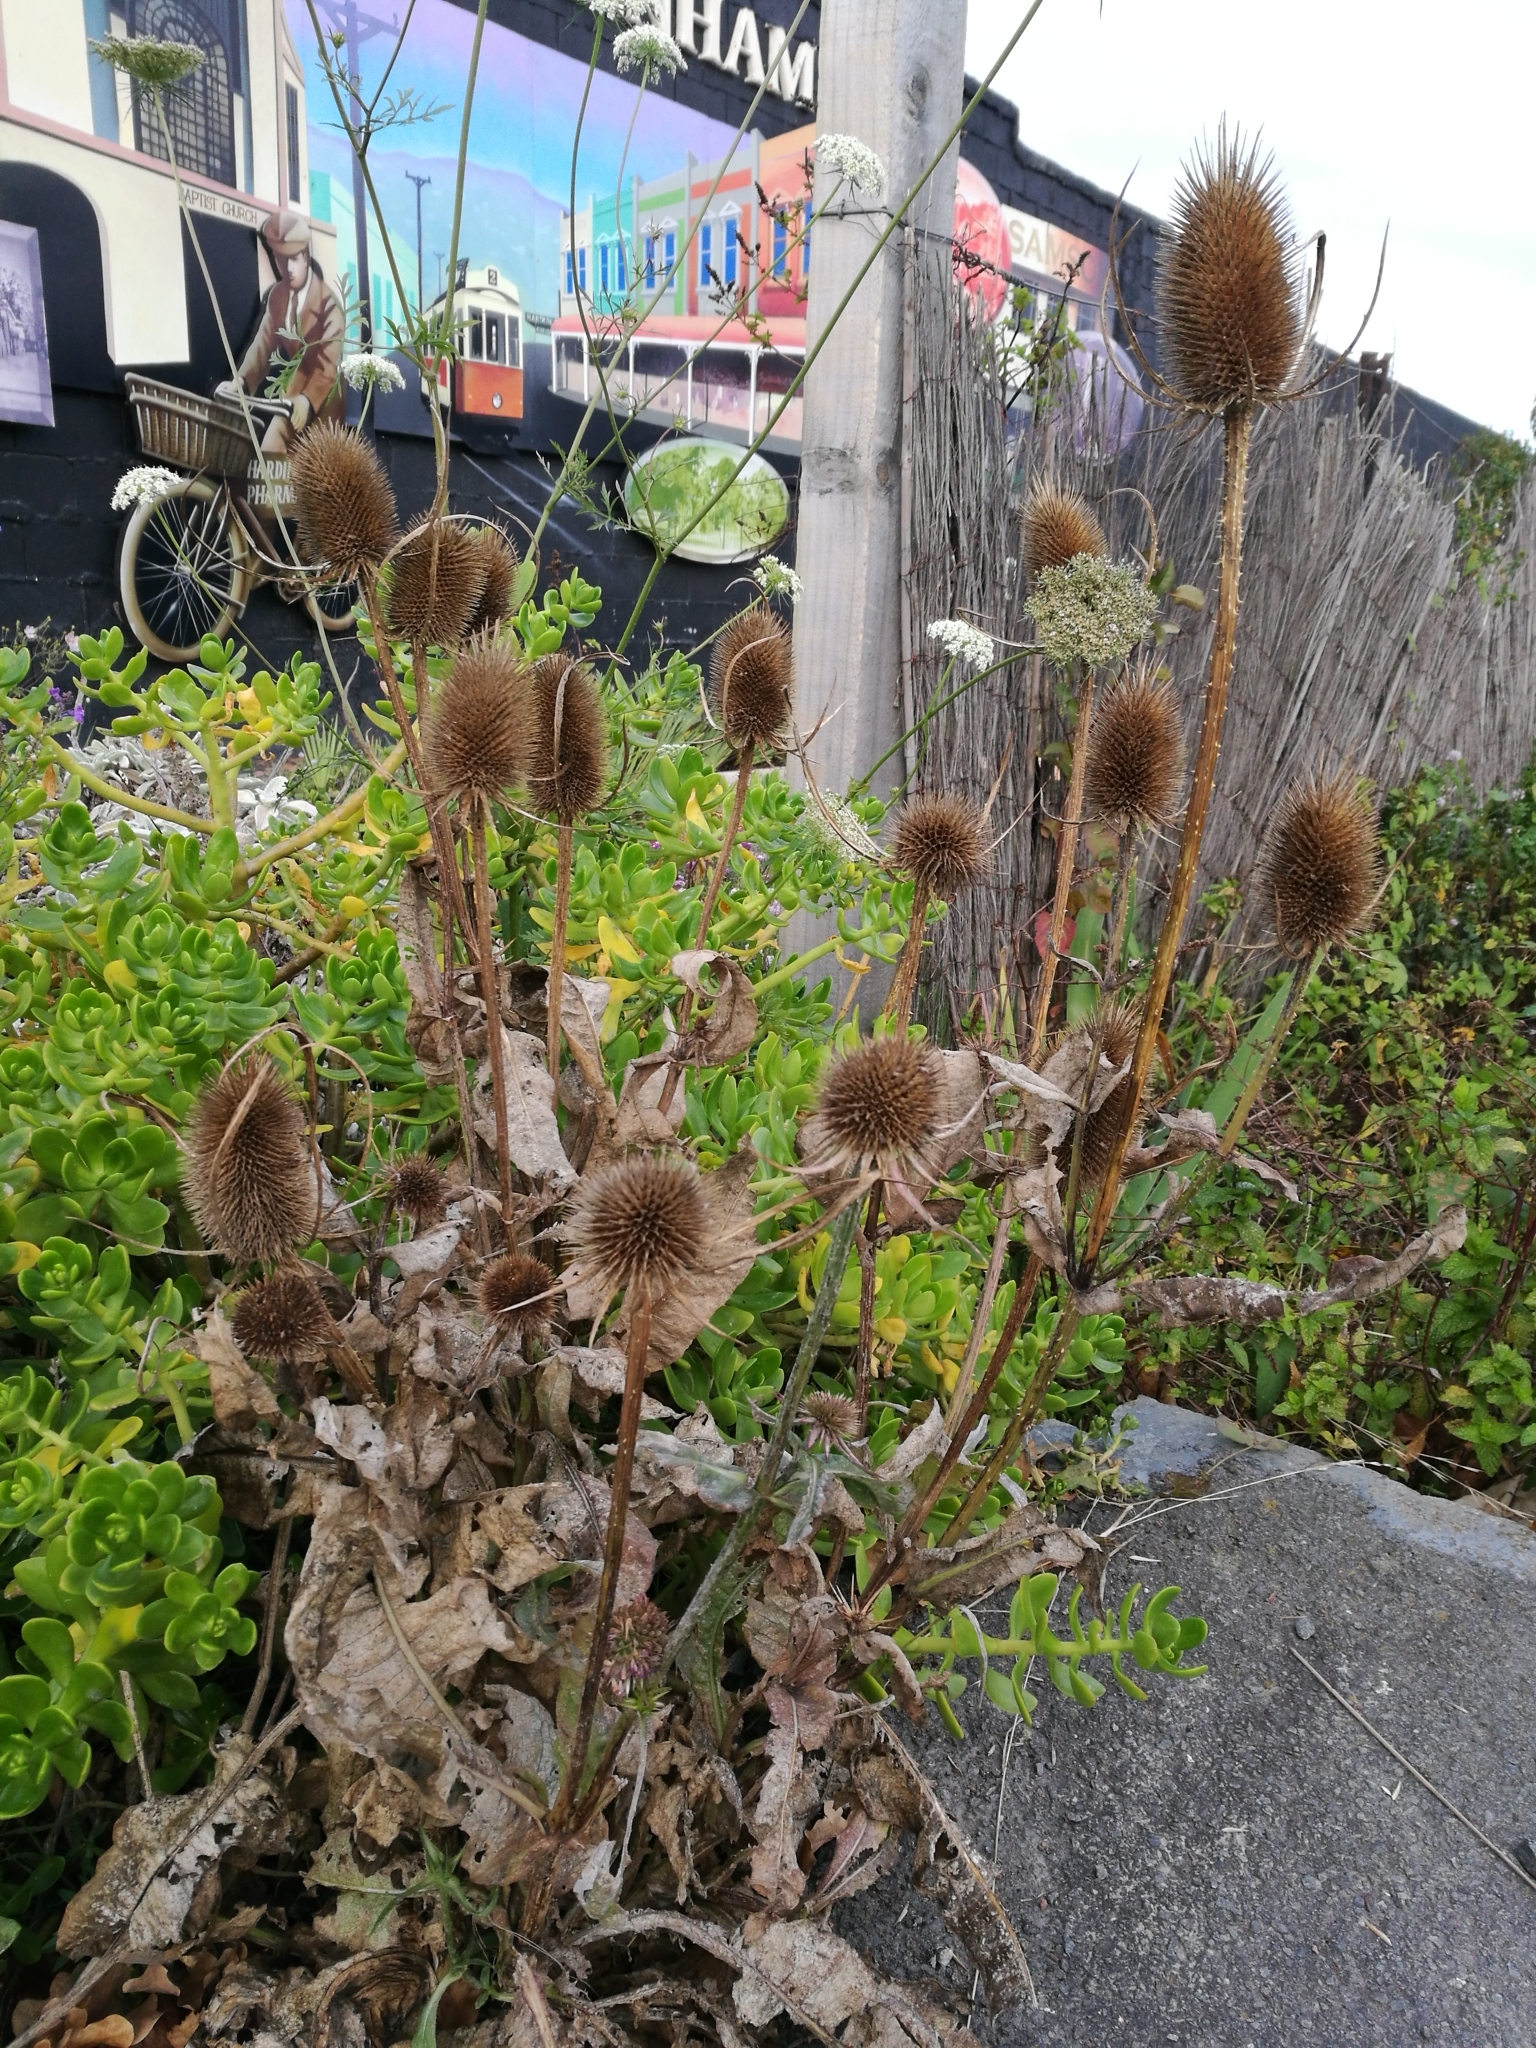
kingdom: Plantae
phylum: Tracheophyta
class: Magnoliopsida
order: Dipsacales
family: Caprifoliaceae
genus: Dipsacus
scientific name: Dipsacus fullonum
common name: Teasel
